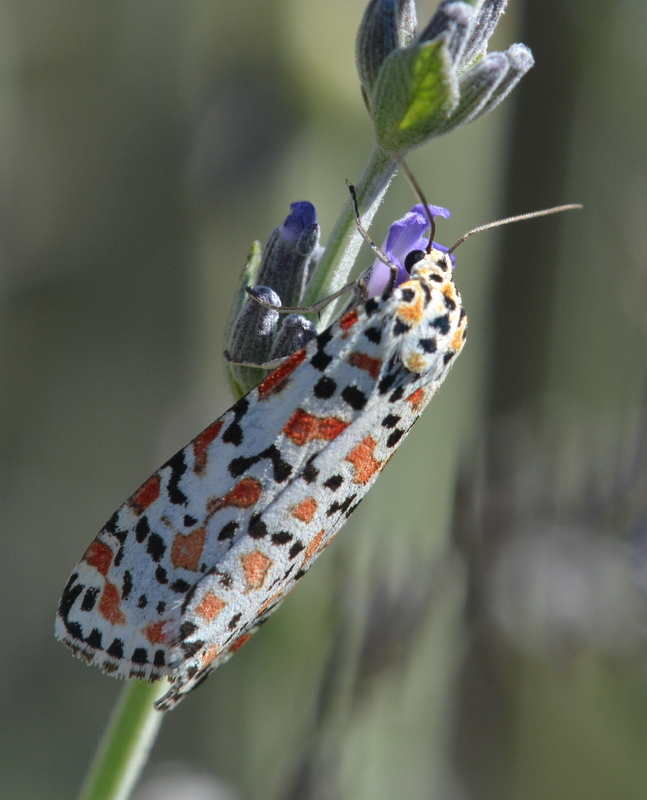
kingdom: Animalia
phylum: Arthropoda
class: Insecta
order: Lepidoptera
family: Erebidae
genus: Utetheisa
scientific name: Utetheisa pulchella
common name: Crimson speckled
